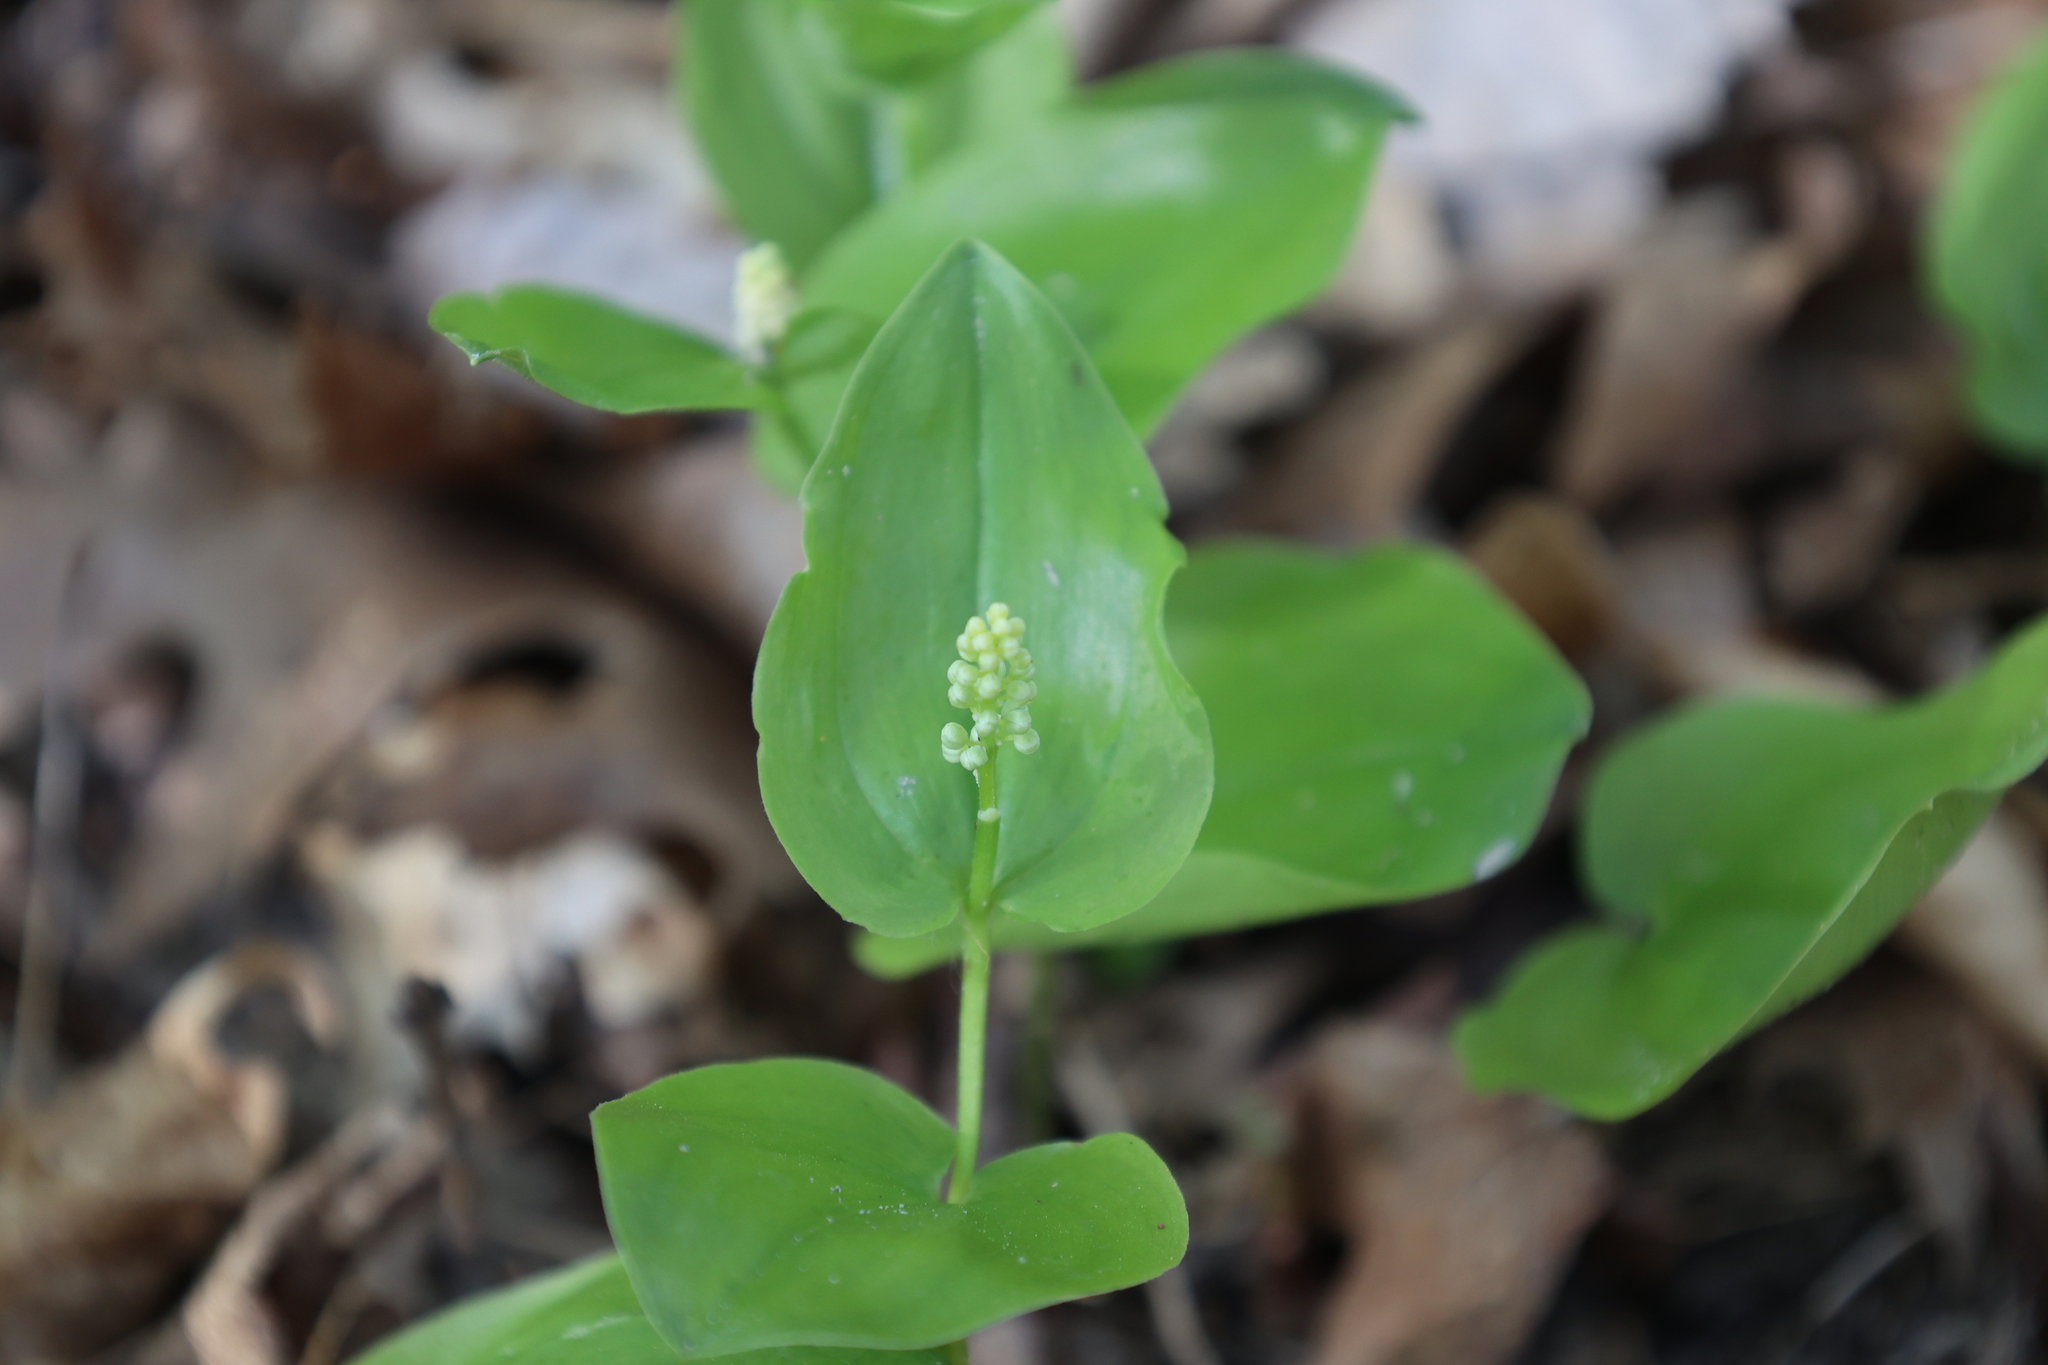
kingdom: Plantae
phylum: Tracheophyta
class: Liliopsida
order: Asparagales
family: Asparagaceae
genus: Maianthemum
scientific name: Maianthemum canadense
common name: False lily-of-the-valley
